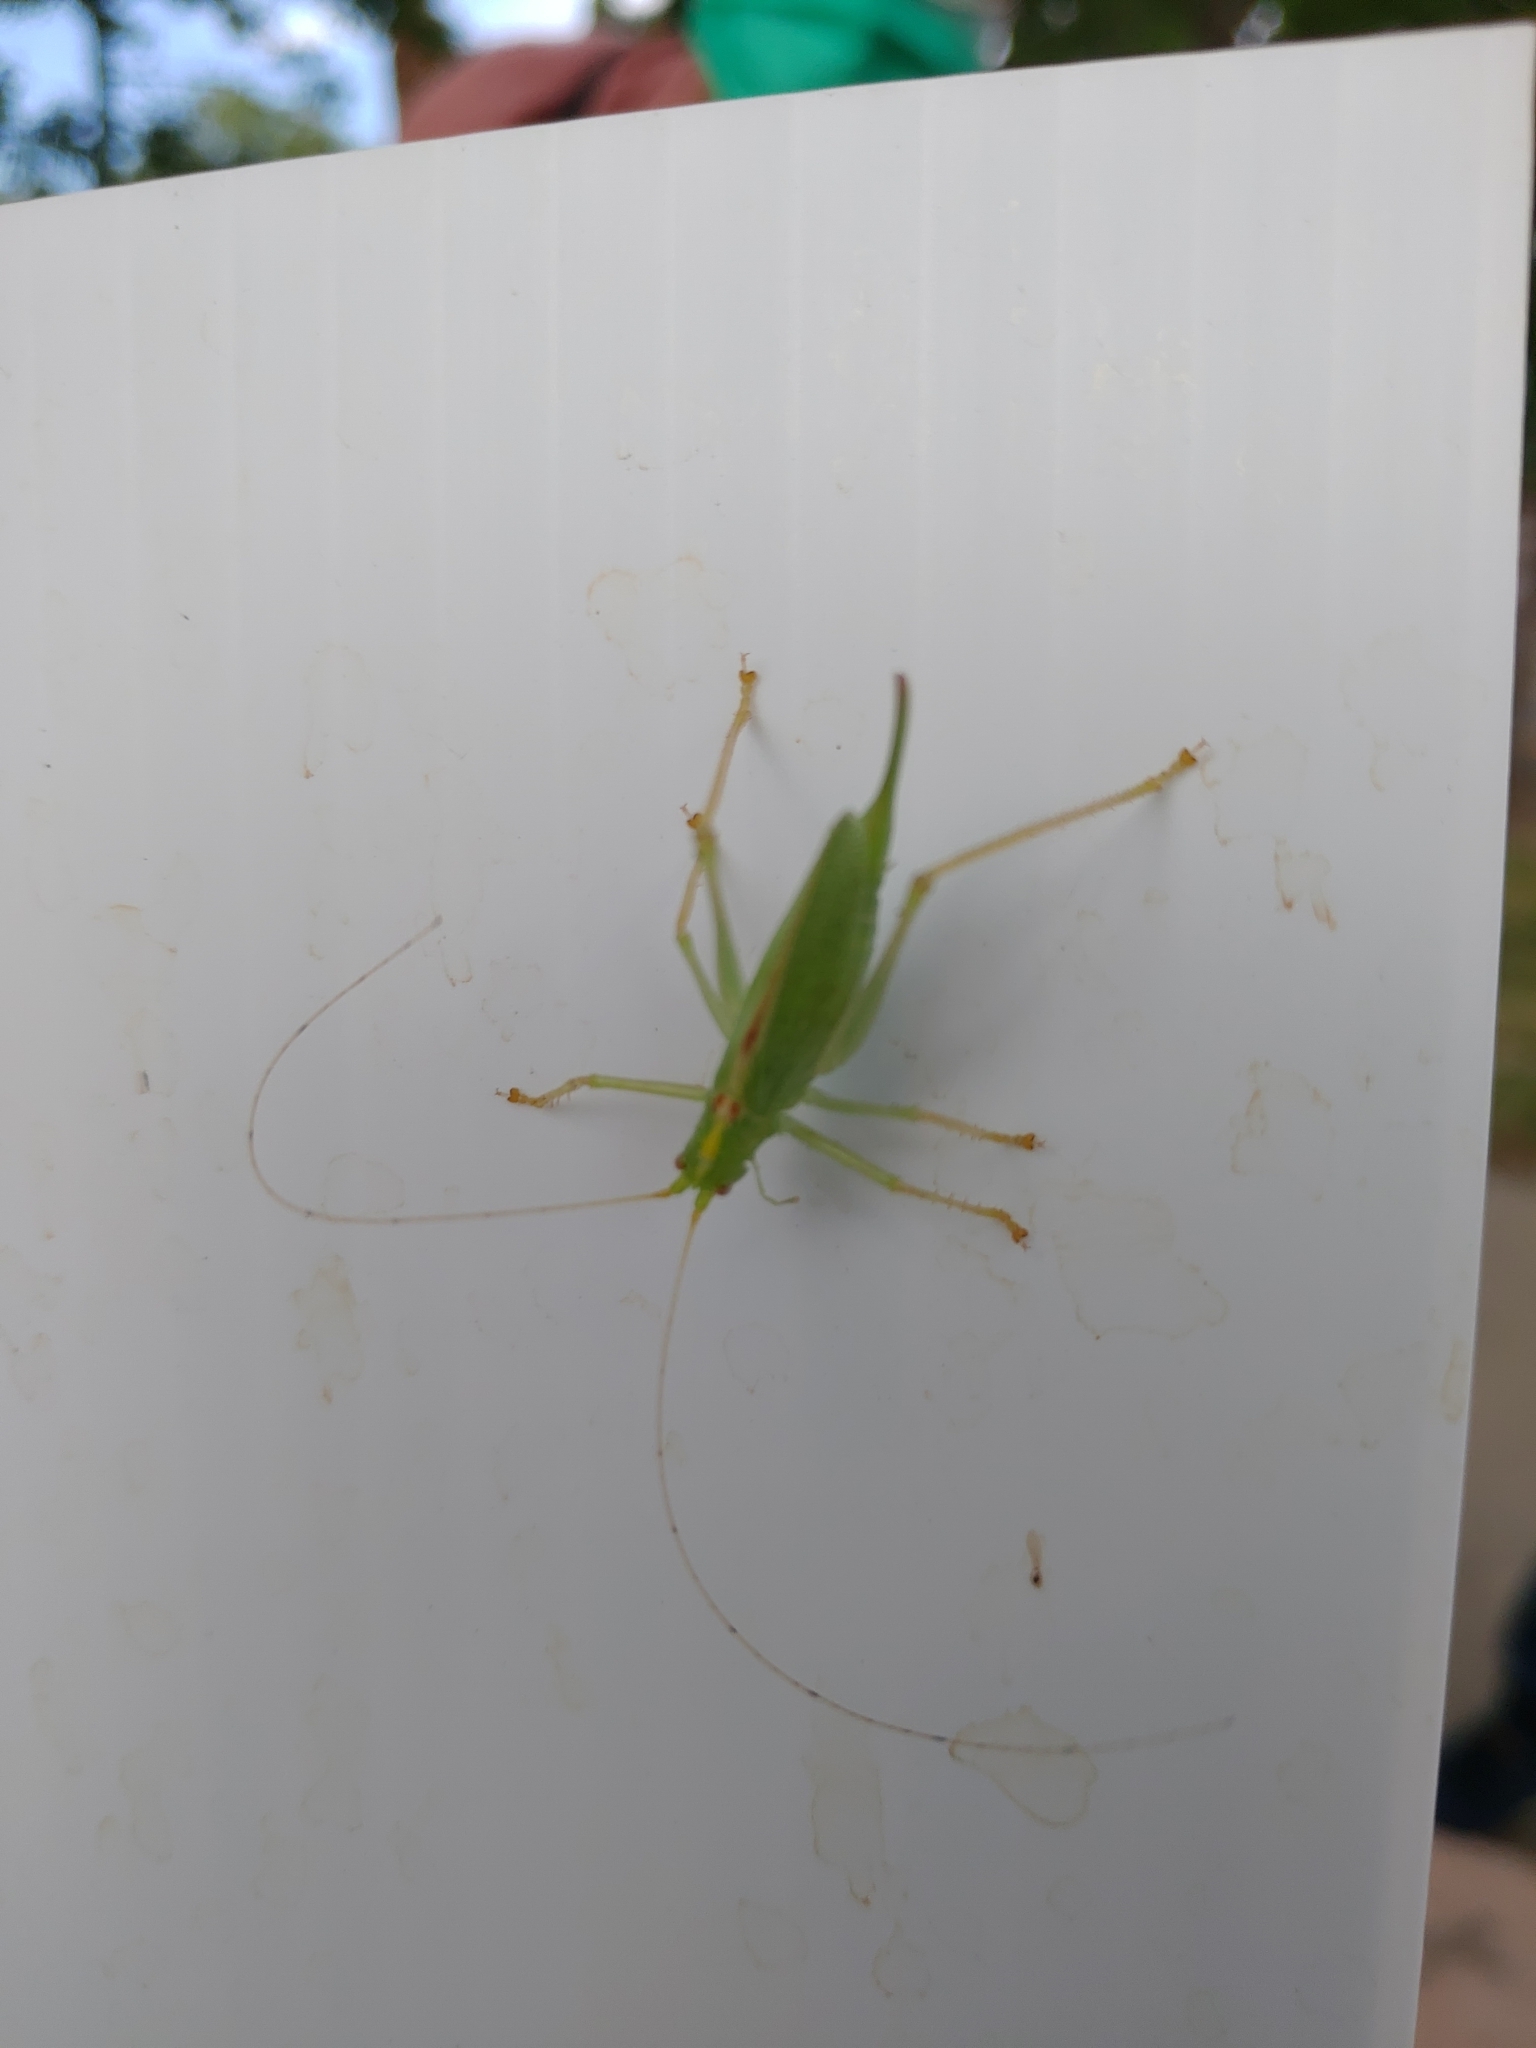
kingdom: Animalia
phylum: Arthropoda
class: Insecta
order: Orthoptera
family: Tettigoniidae
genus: Meconema
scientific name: Meconema thalassinum
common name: Oak bush-cricket
